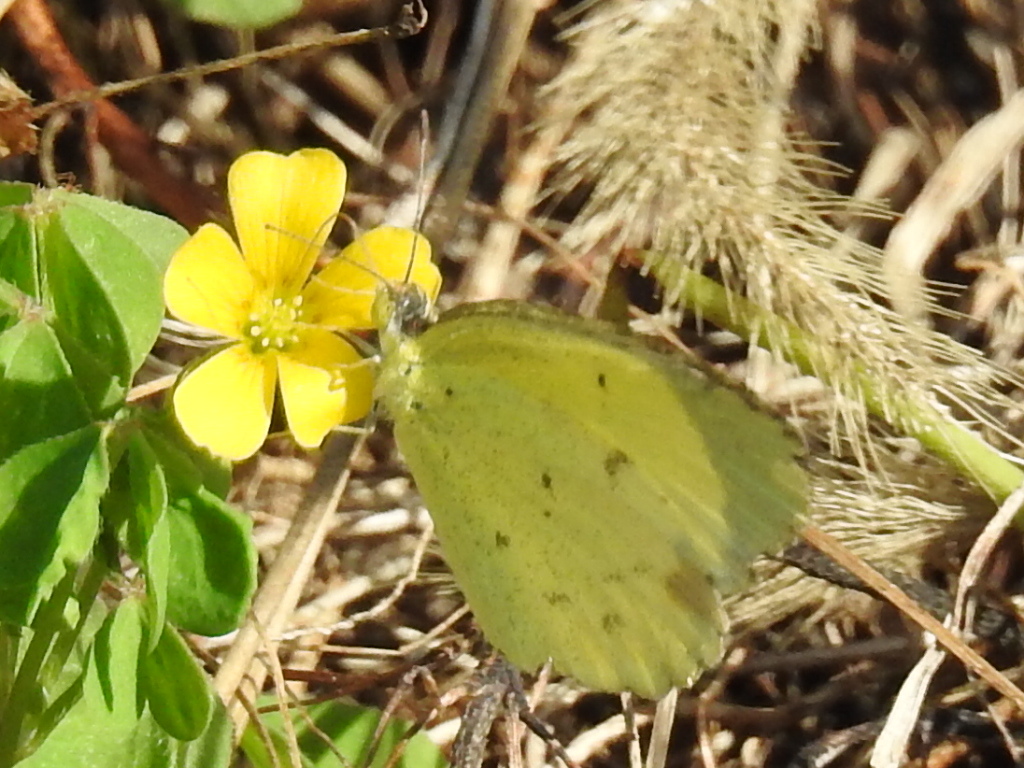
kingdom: Animalia
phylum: Arthropoda
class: Insecta
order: Lepidoptera
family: Pieridae
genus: Pyrisitia
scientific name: Pyrisitia lisa
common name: Little yellow
